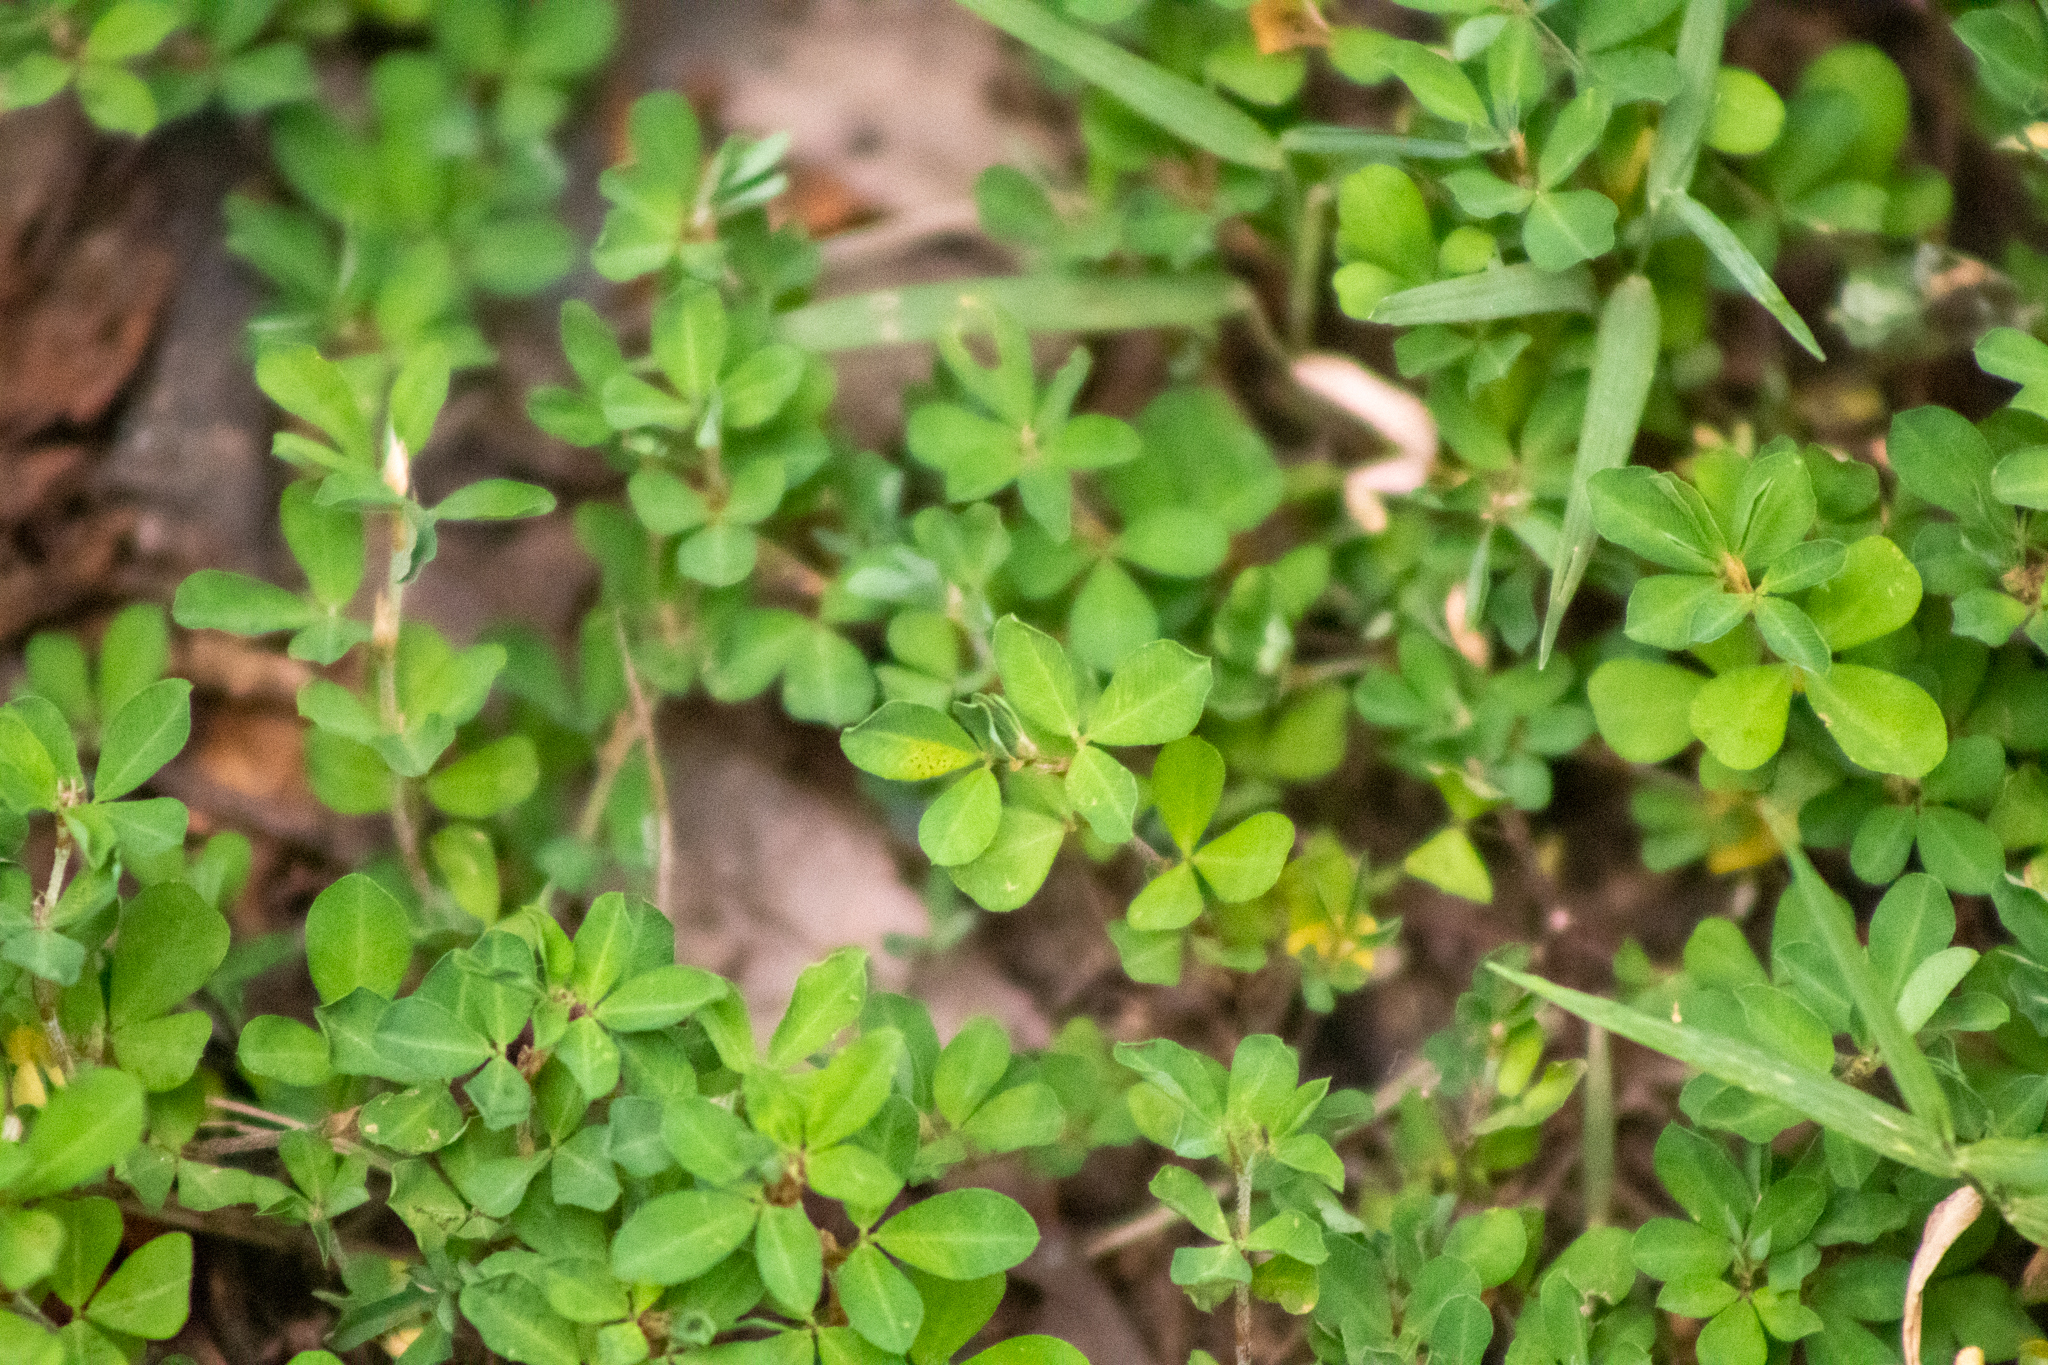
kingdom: Plantae
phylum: Tracheophyta
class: Magnoliopsida
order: Fabales
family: Fabaceae
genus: Kummerowia
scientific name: Kummerowia striata
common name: Japanese clover
